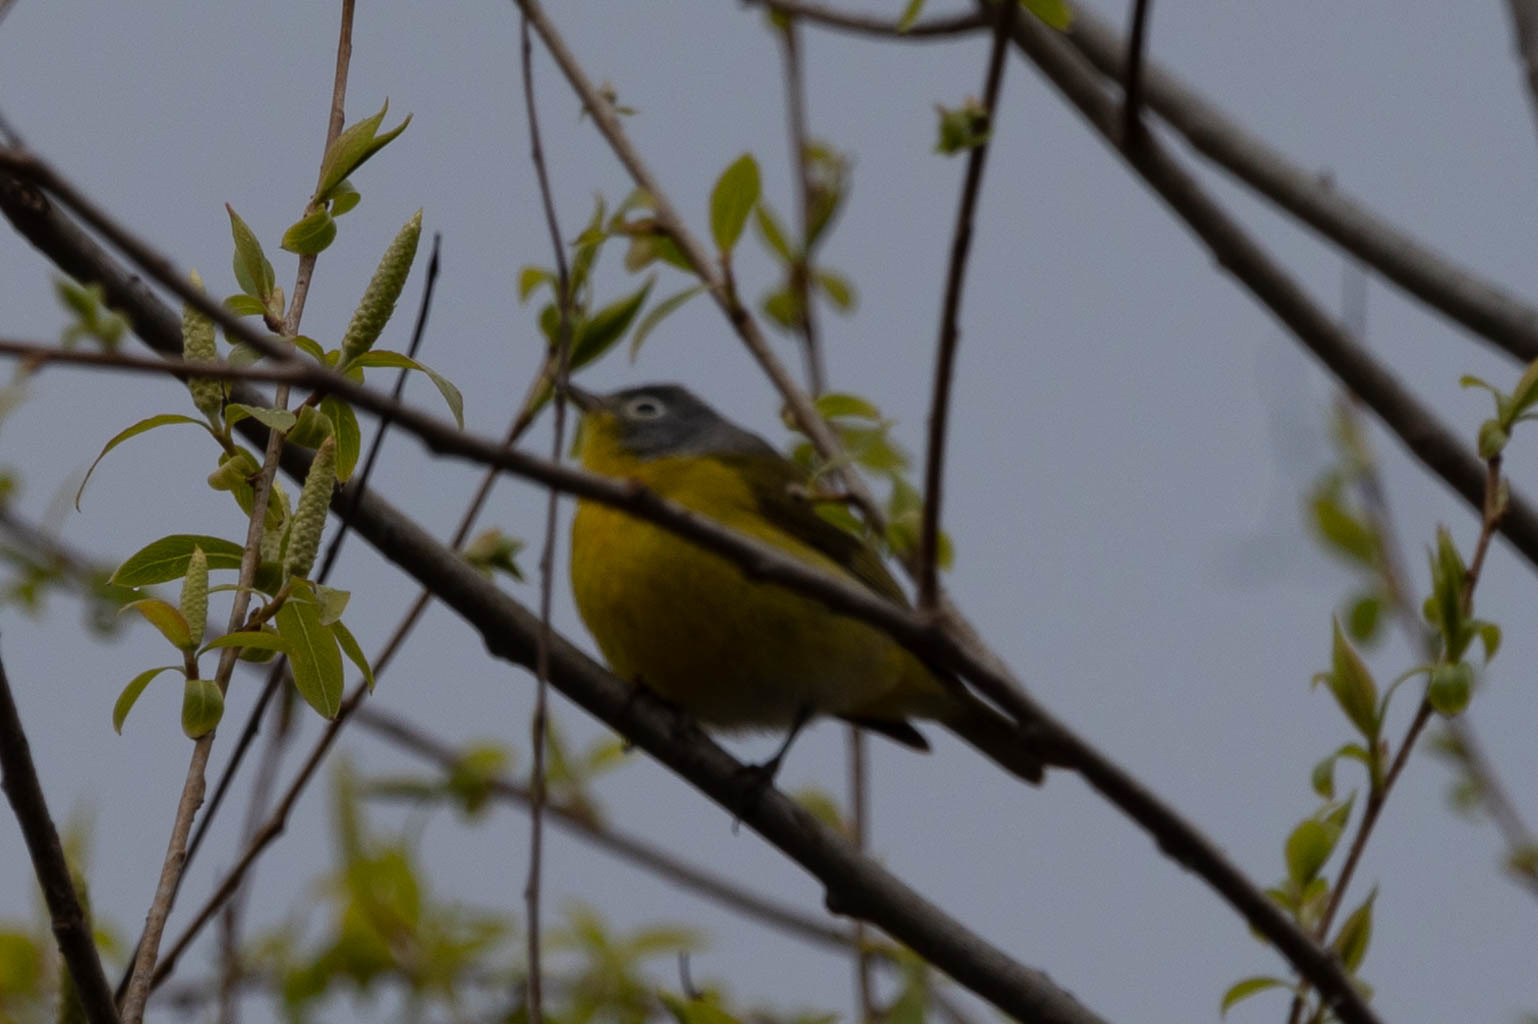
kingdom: Animalia
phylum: Chordata
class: Aves
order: Passeriformes
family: Parulidae
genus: Leiothlypis
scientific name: Leiothlypis ruficapilla
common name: Nashville warbler
